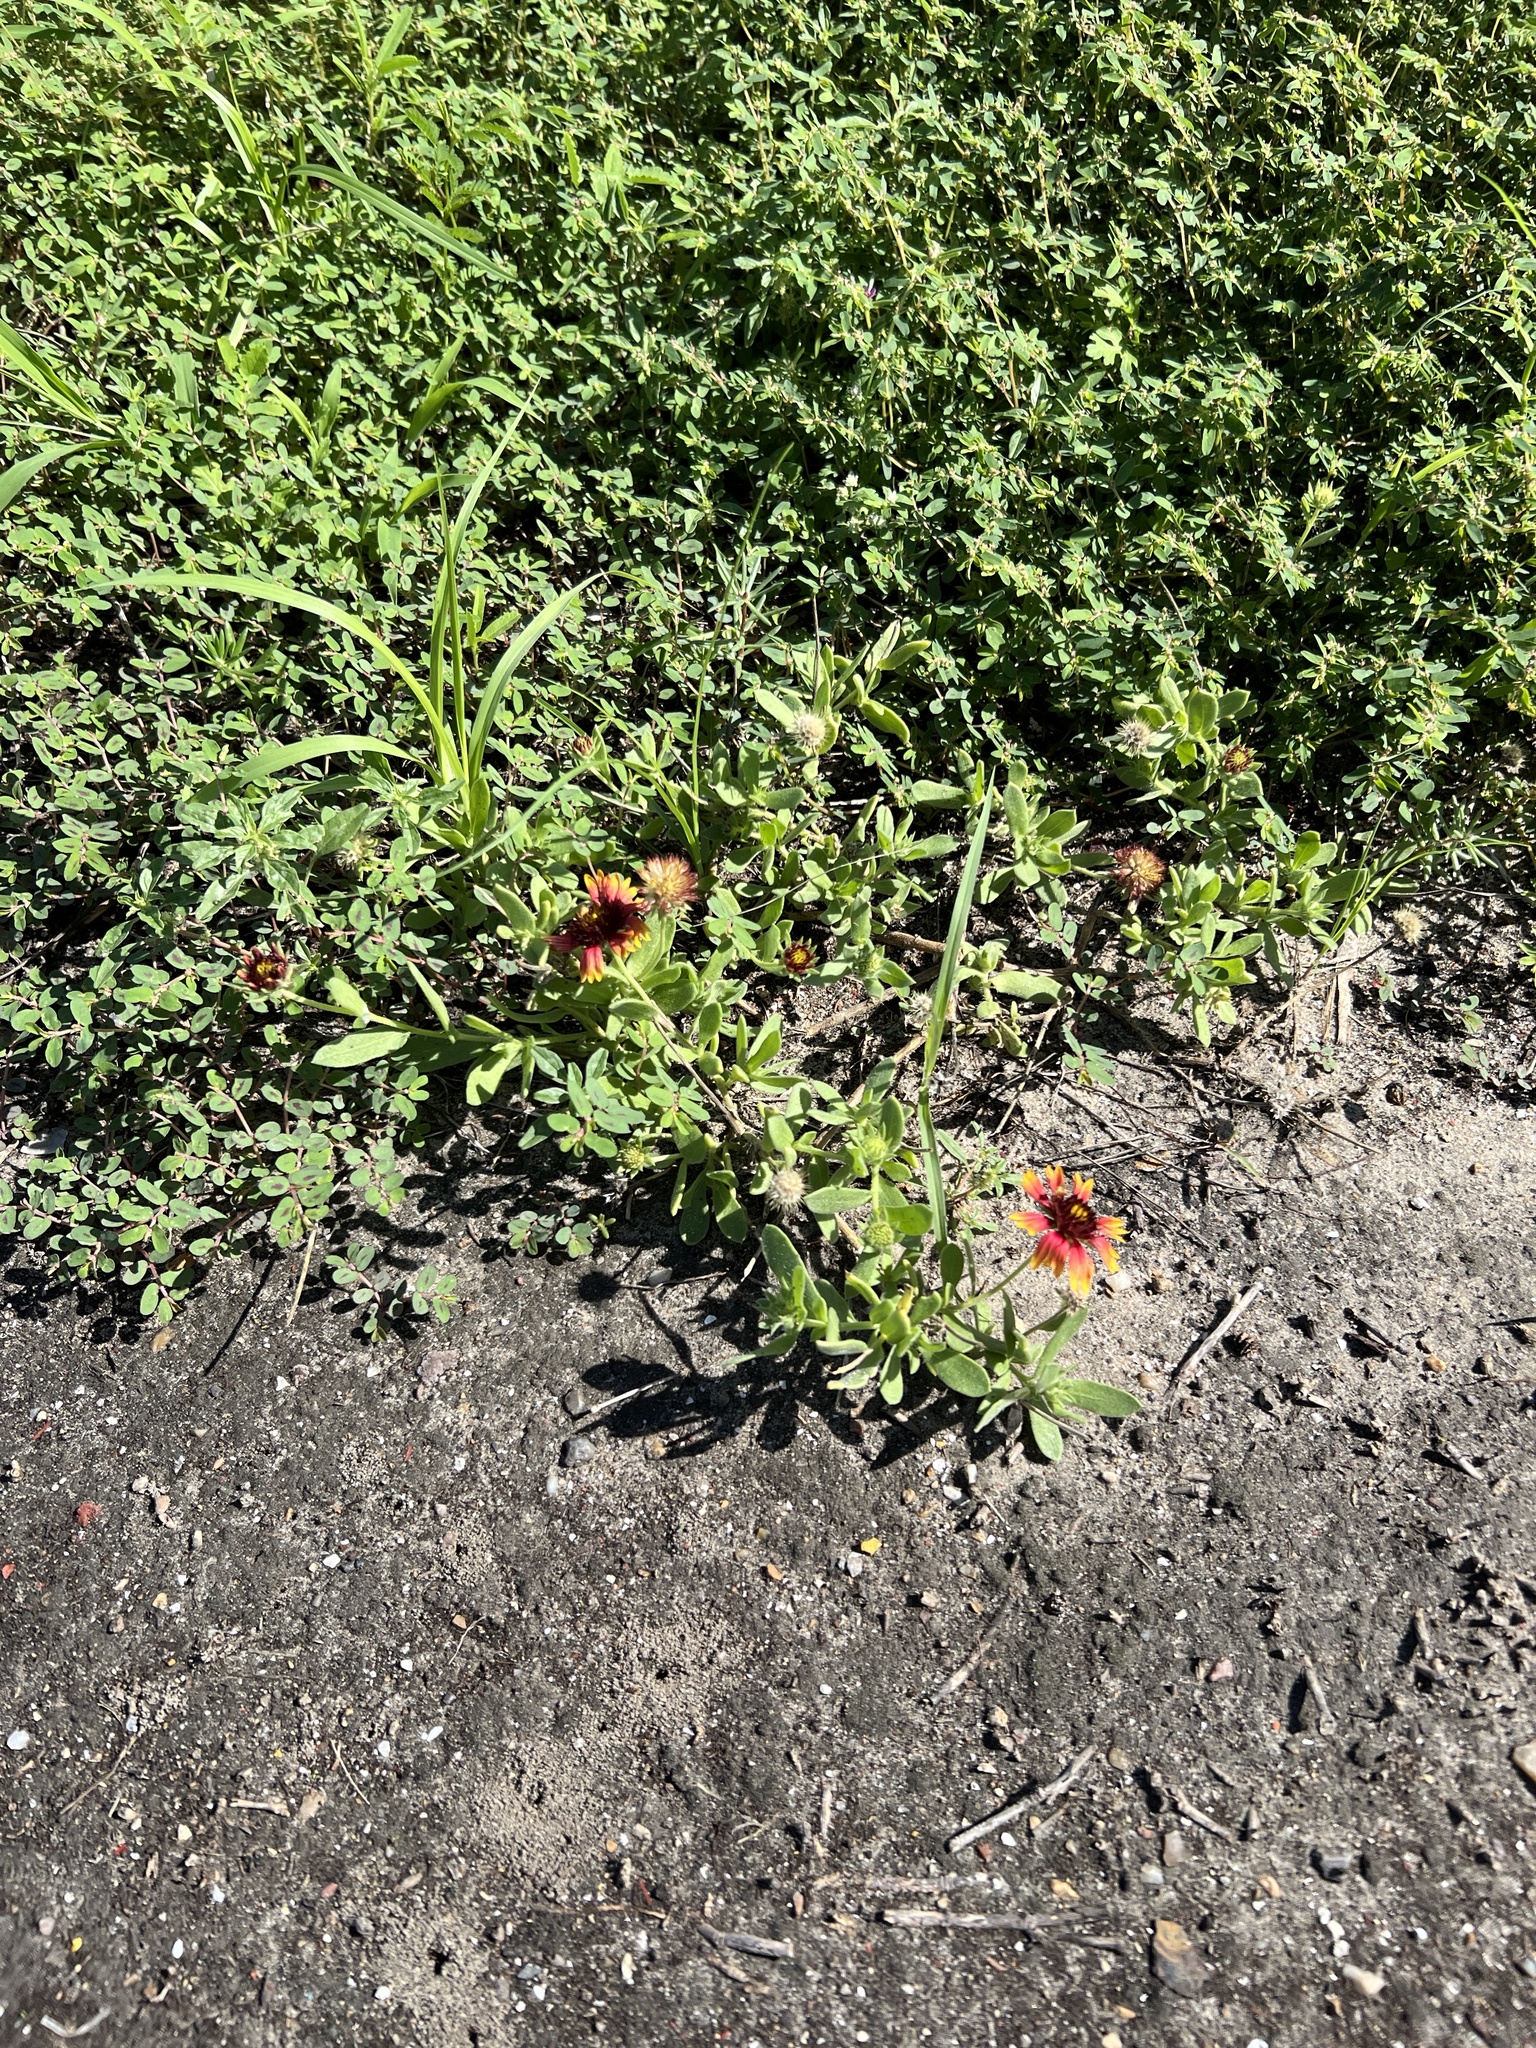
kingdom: Plantae
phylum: Tracheophyta
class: Magnoliopsida
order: Asterales
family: Asteraceae
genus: Gaillardia
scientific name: Gaillardia pulchella
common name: Firewheel
